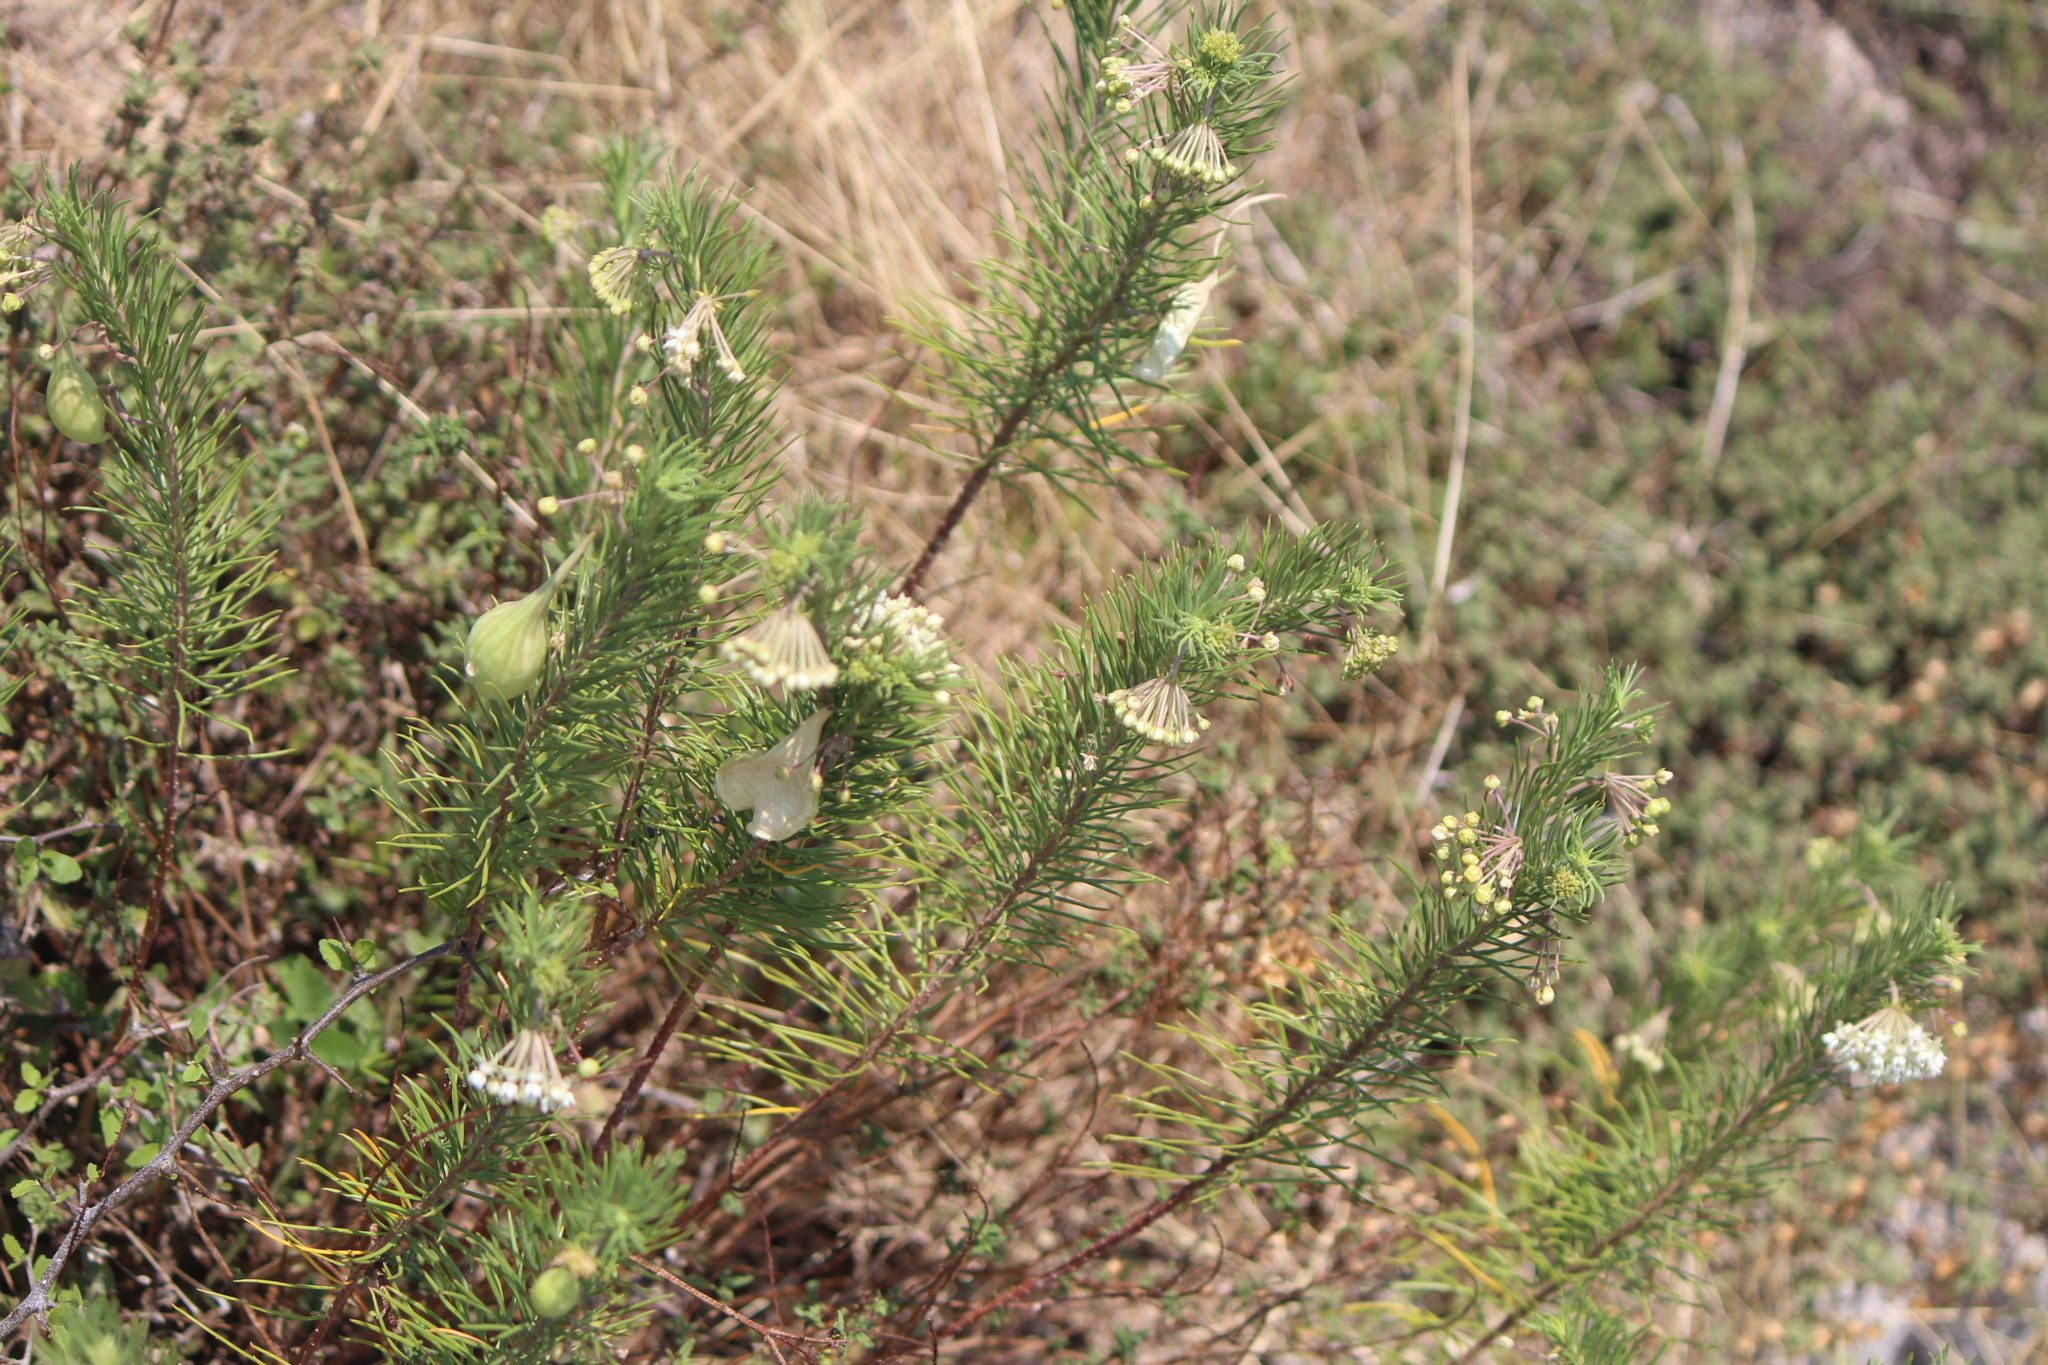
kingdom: Plantae
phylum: Tracheophyta
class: Magnoliopsida
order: Gentianales
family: Apocynaceae
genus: Asclepias
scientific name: Asclepias linaria
